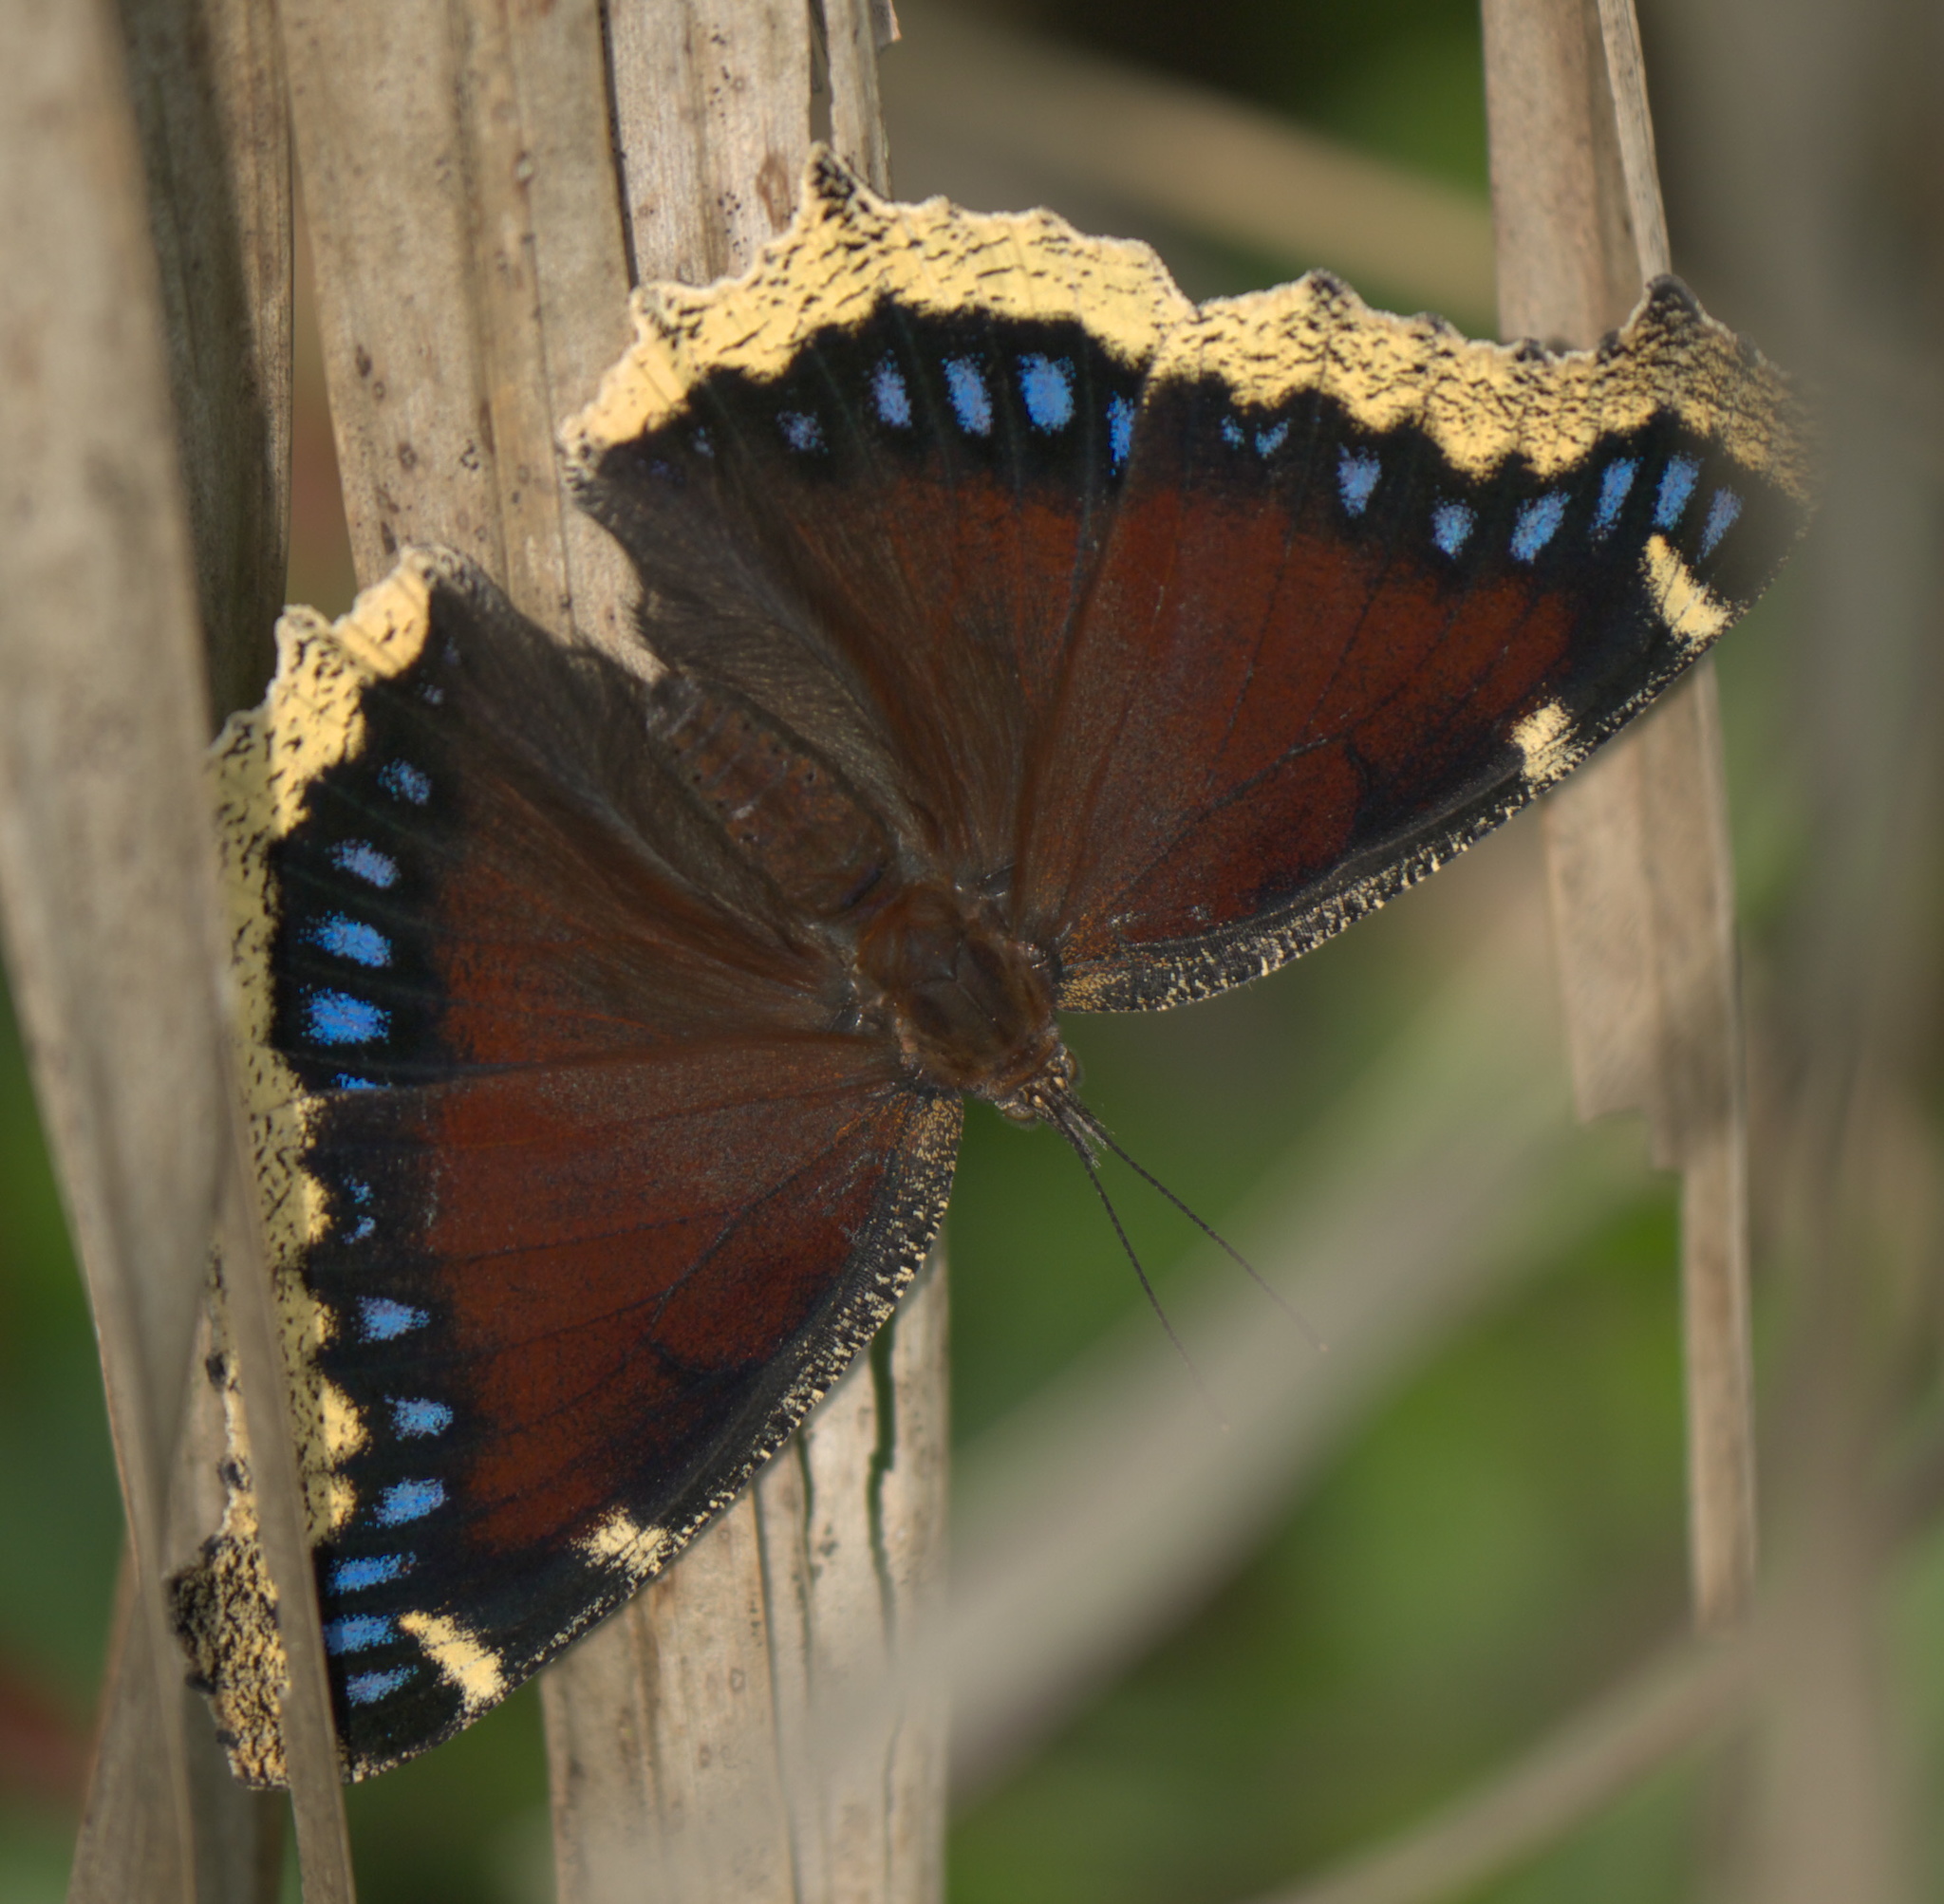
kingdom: Animalia
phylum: Arthropoda
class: Insecta
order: Lepidoptera
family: Nymphalidae
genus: Nymphalis
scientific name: Nymphalis antiopa
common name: Camberwell beauty
